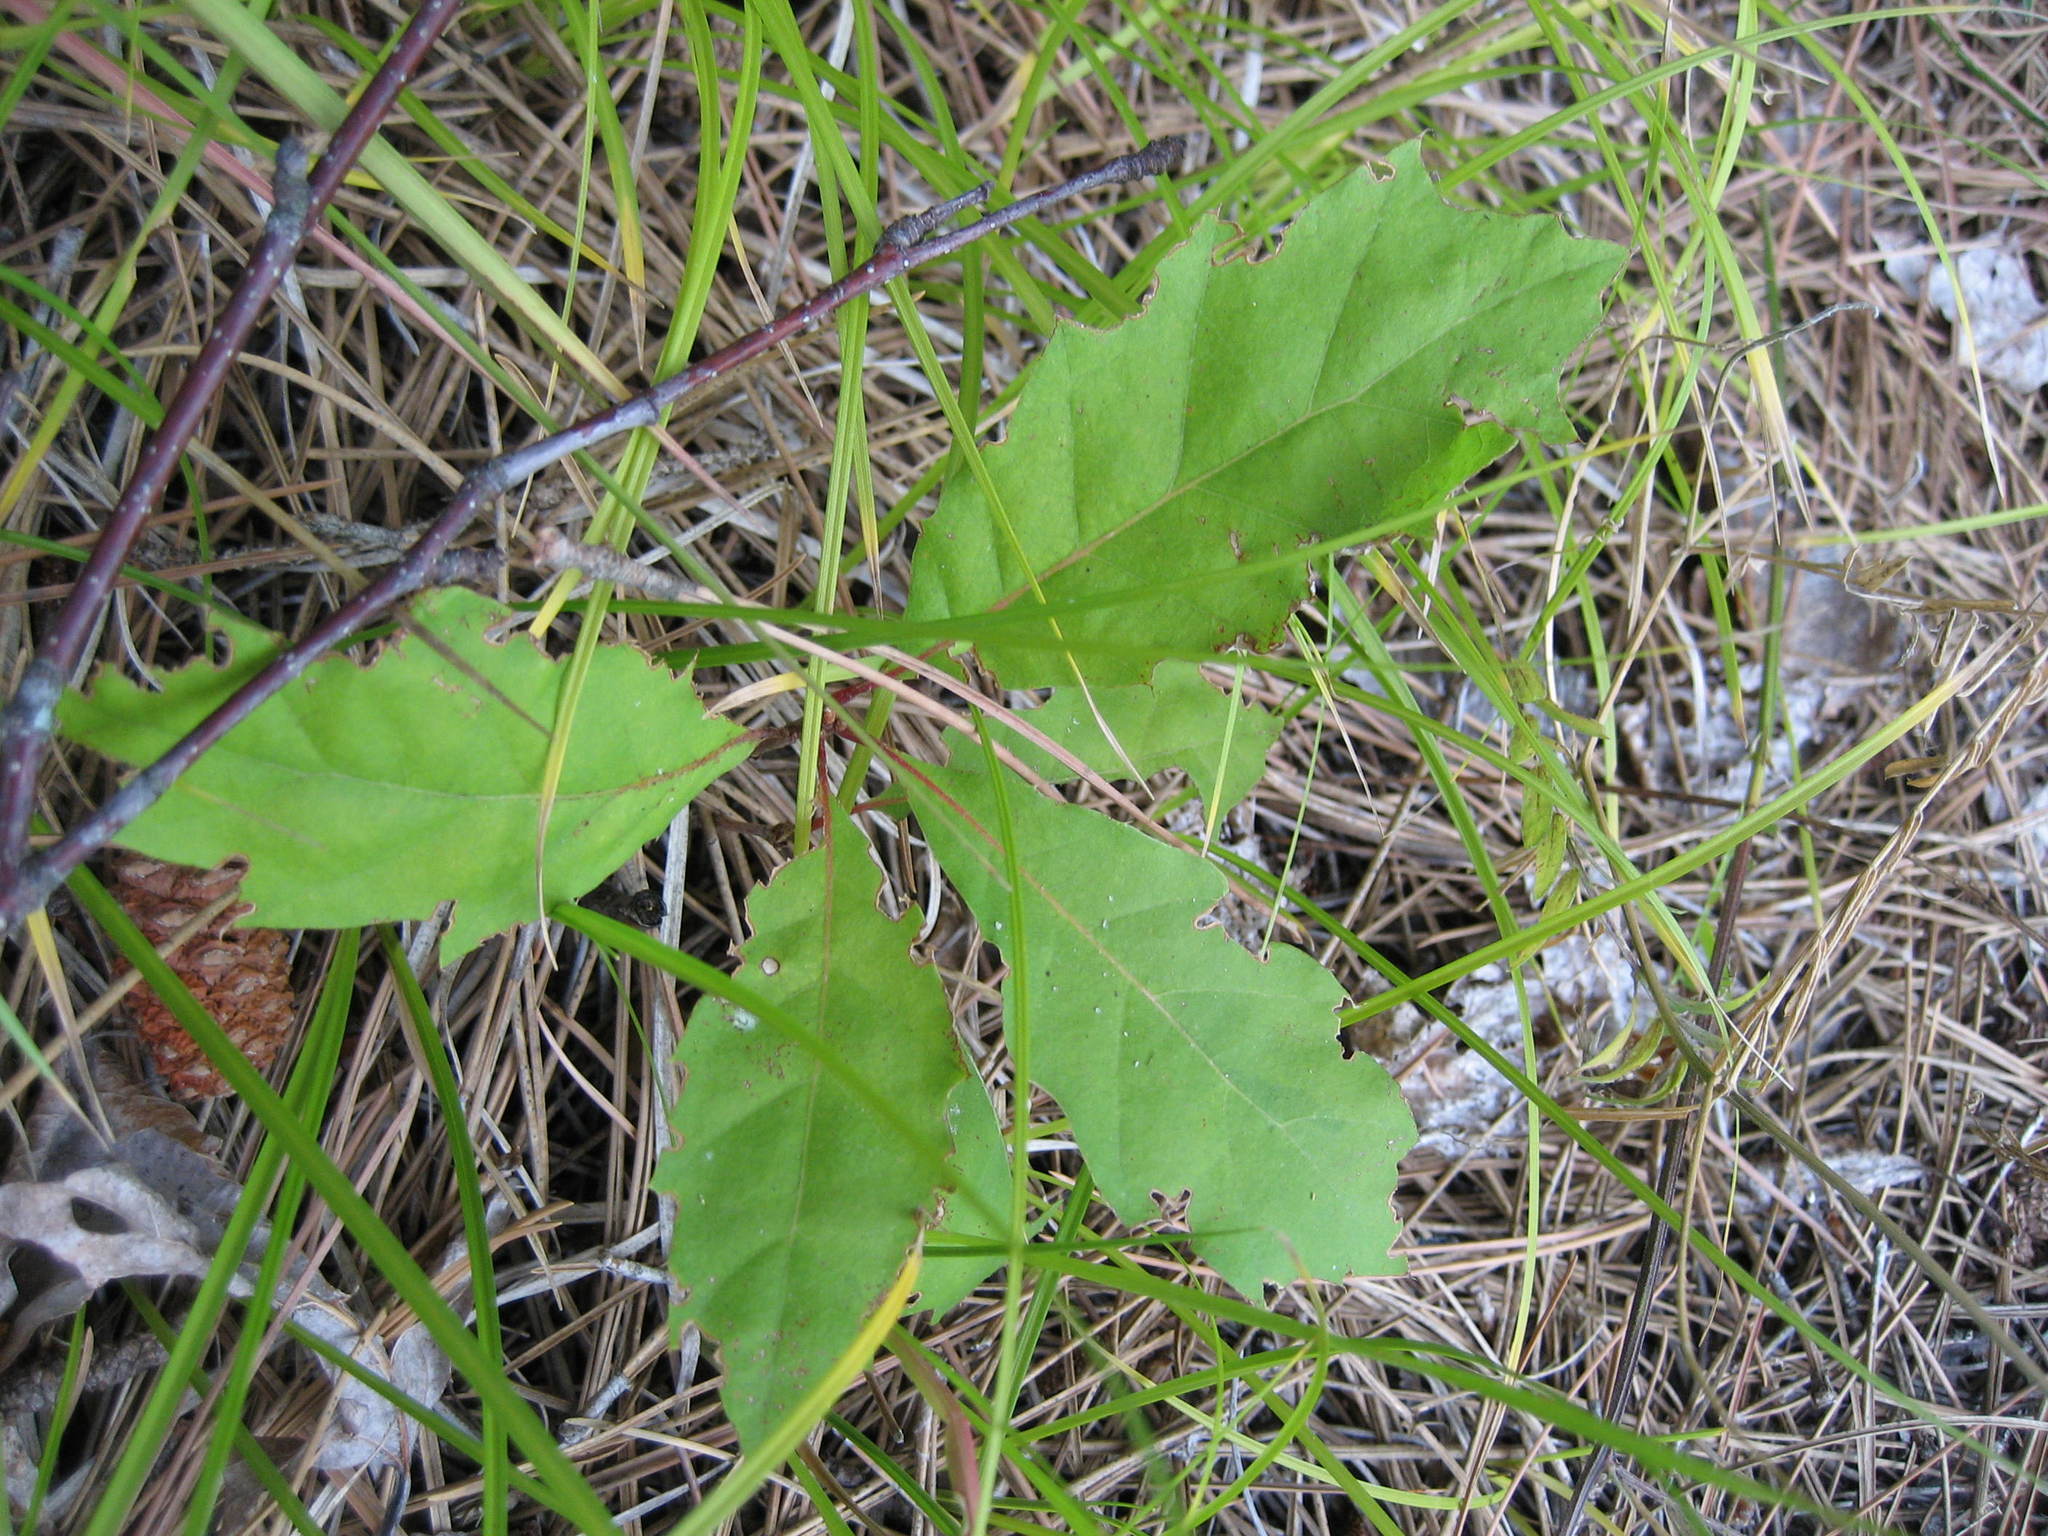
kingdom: Plantae
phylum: Tracheophyta
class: Magnoliopsida
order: Fagales
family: Fagaceae
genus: Quercus
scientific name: Quercus rubra
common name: Red oak
